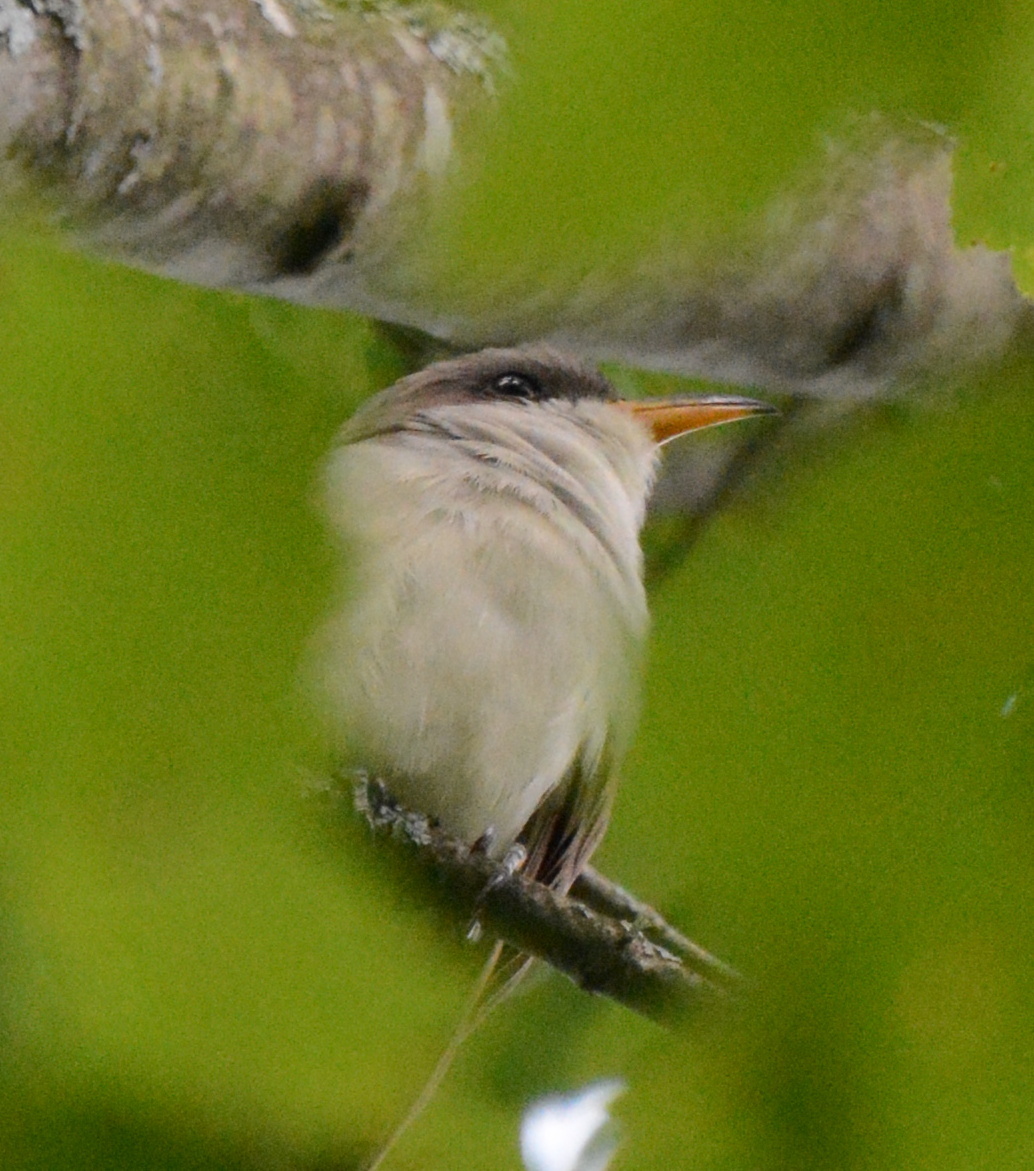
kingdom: Animalia
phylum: Chordata
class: Aves
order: Cuculiformes
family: Cuculidae
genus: Coccyzus
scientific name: Coccyzus americanus
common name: Yellow-billed cuckoo
